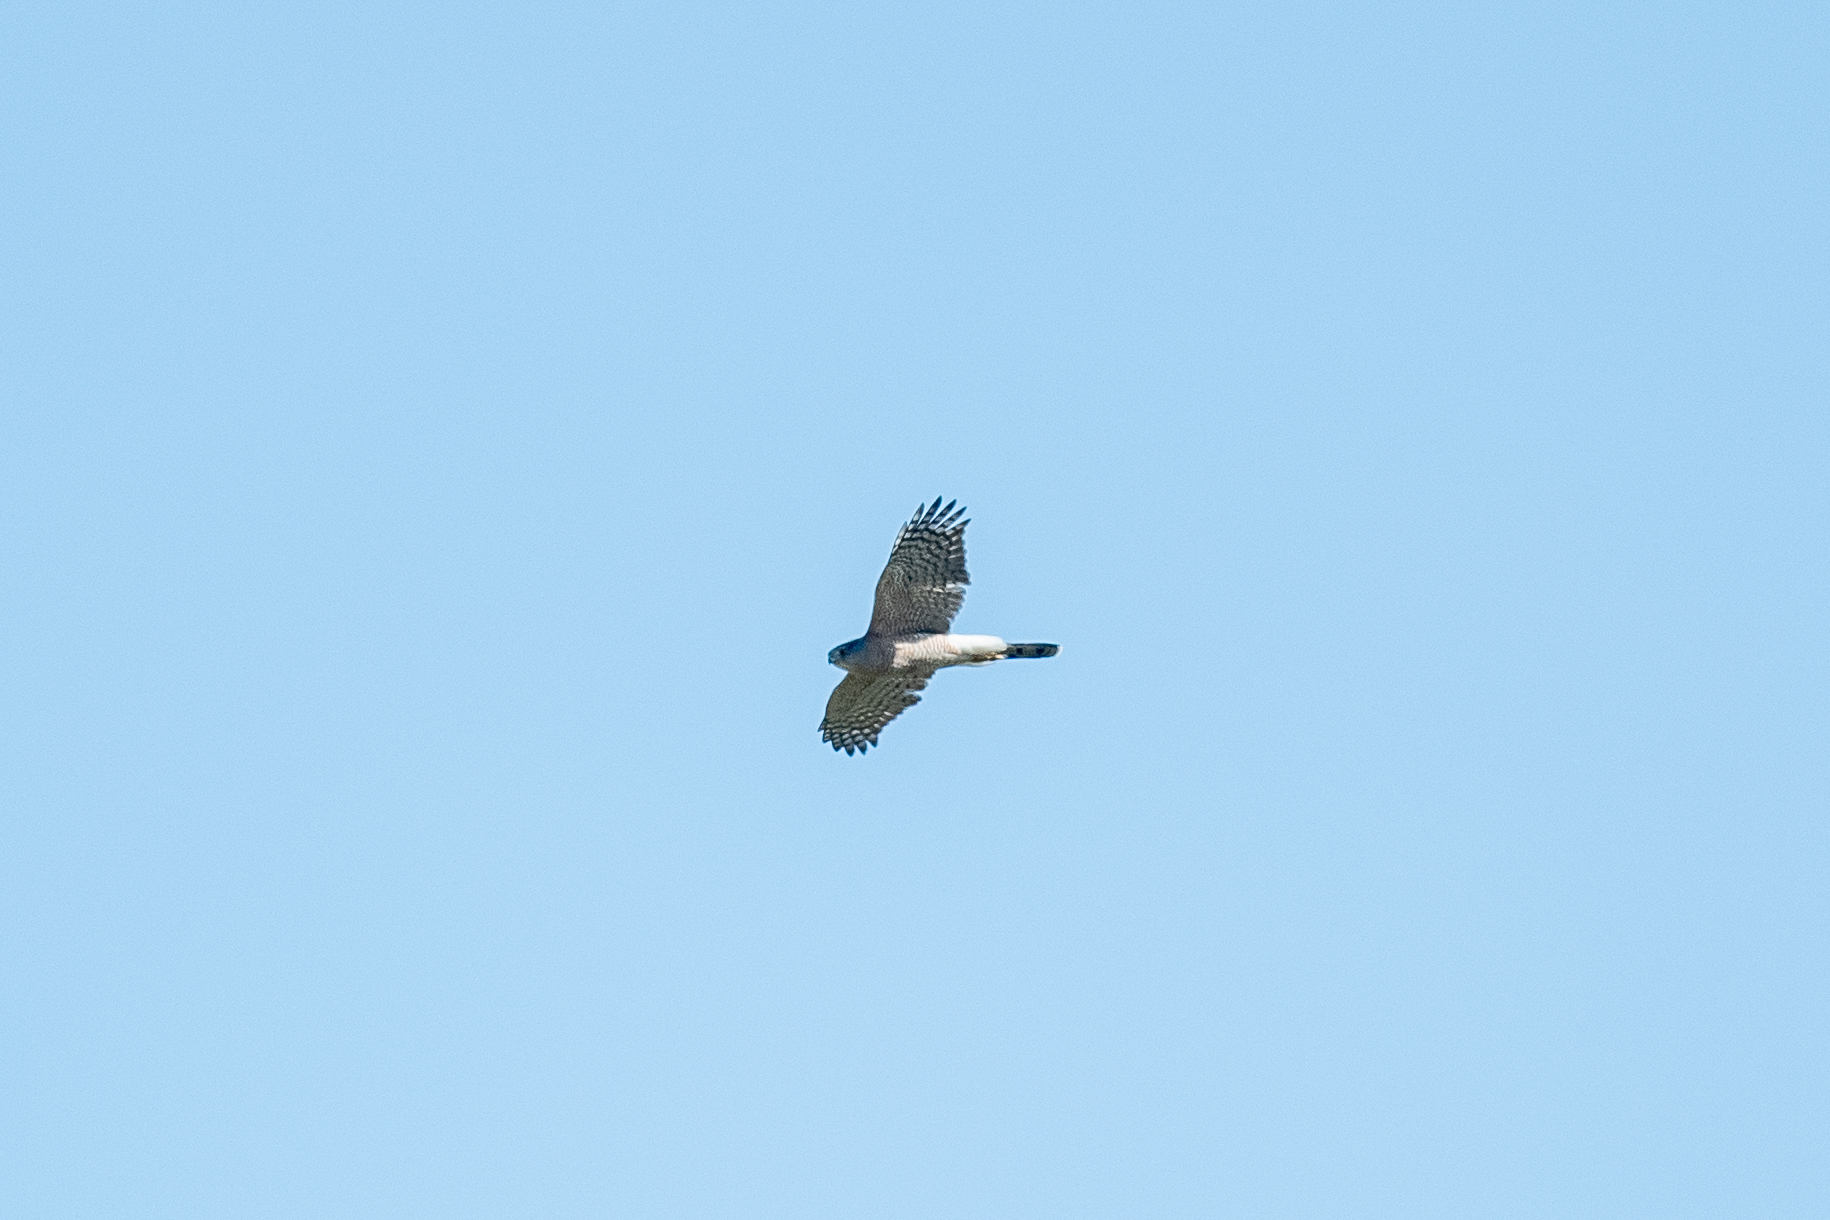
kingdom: Animalia
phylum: Chordata
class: Aves
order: Accipitriformes
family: Accipitridae
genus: Accipiter
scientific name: Accipiter cooperii
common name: Cooper's hawk
